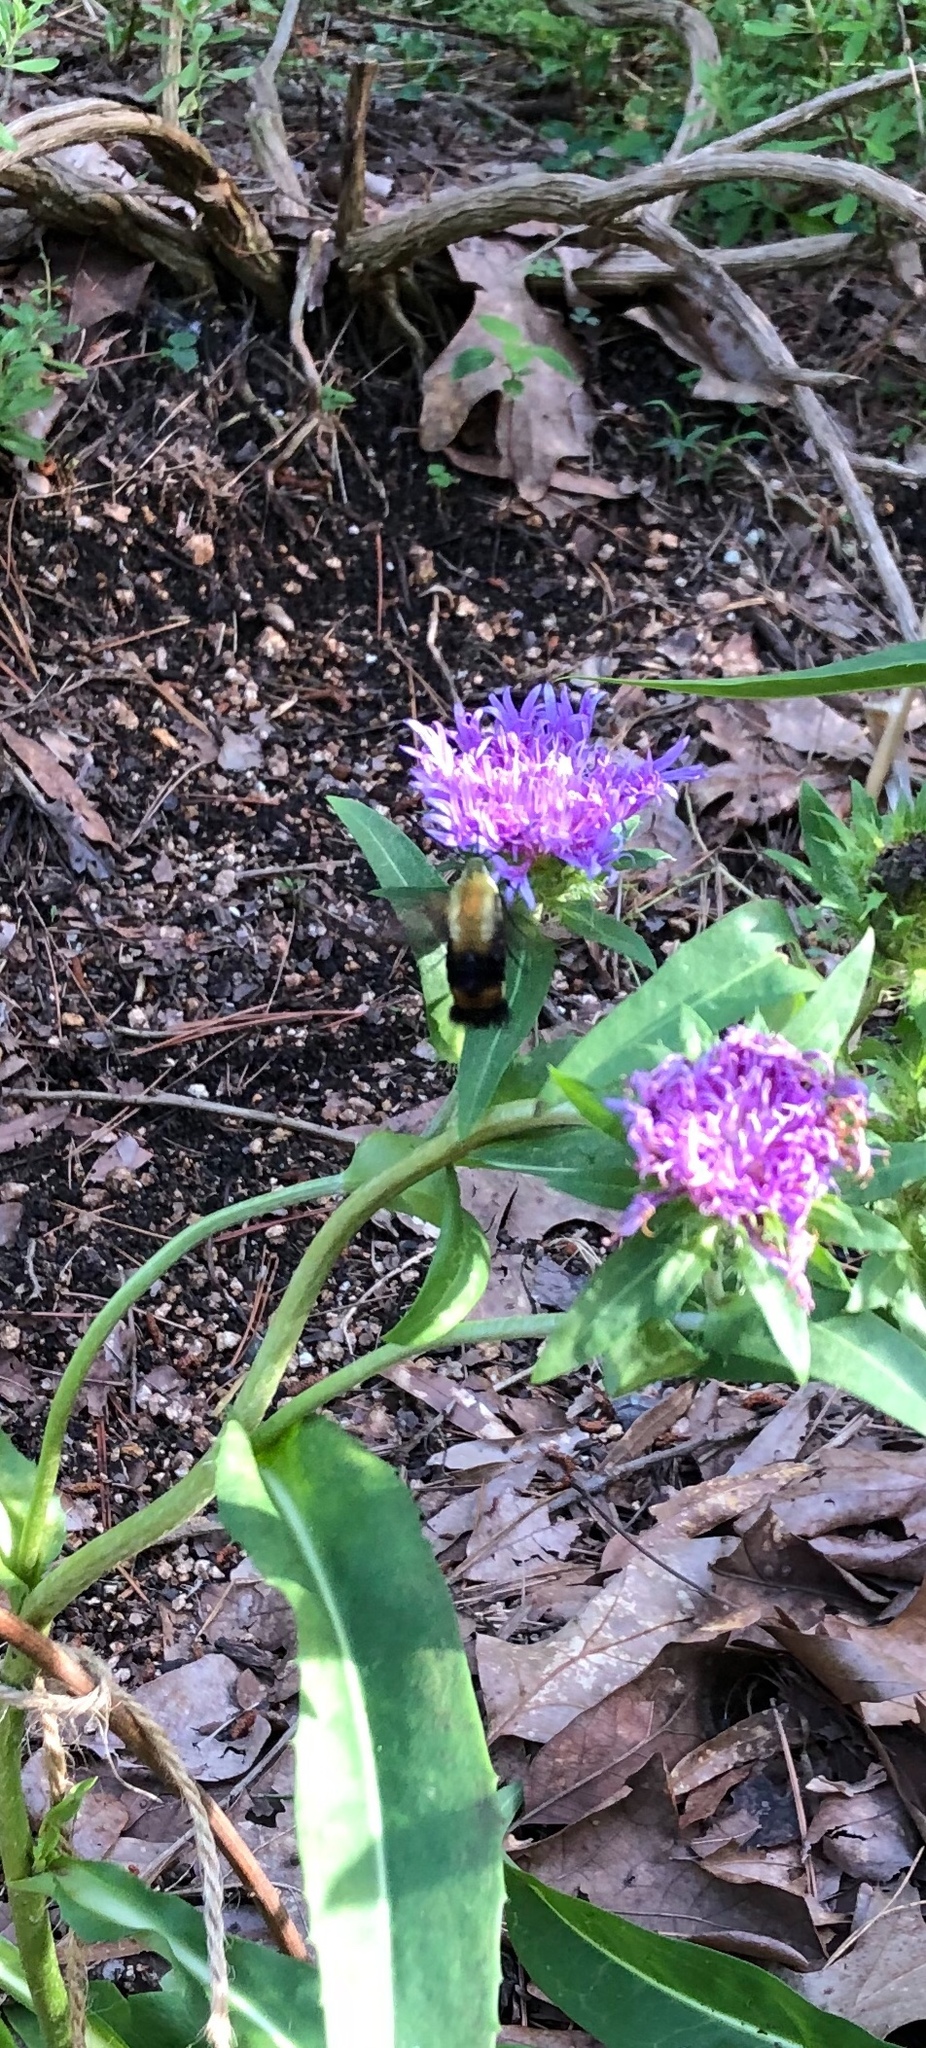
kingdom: Animalia
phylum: Arthropoda
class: Insecta
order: Lepidoptera
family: Sphingidae
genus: Hemaris
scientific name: Hemaris diffinis
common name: Bumblebee moth
